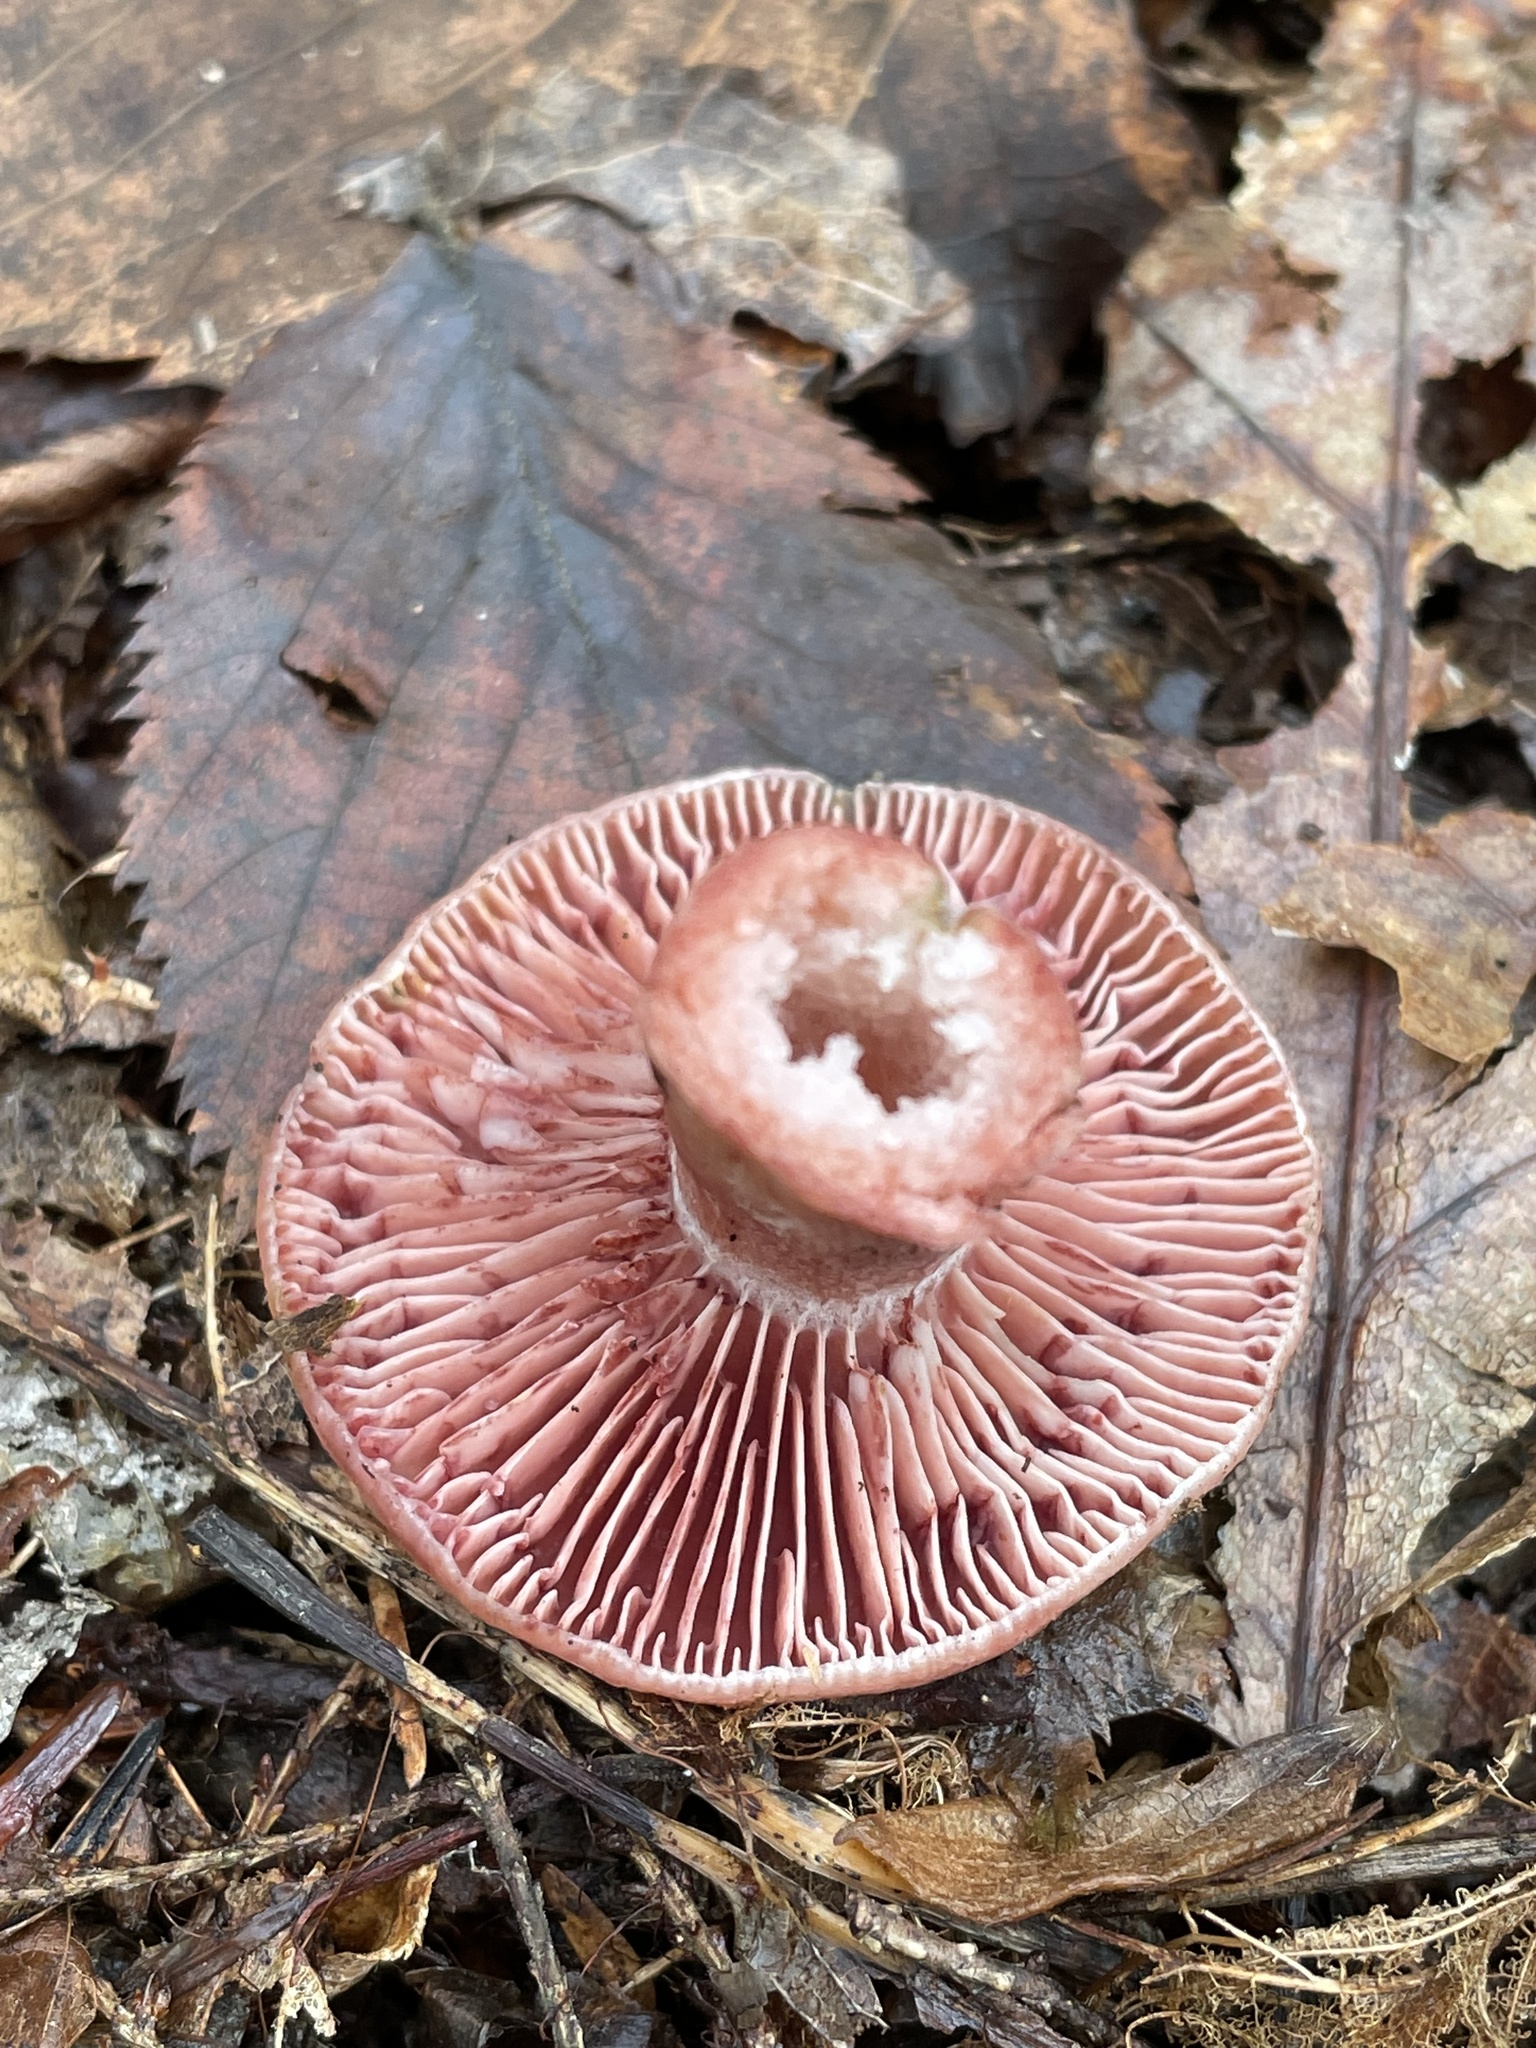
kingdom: Fungi
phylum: Basidiomycota
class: Agaricomycetes
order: Russulales
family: Russulaceae
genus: Lactarius
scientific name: Lactarius subpurpureus
